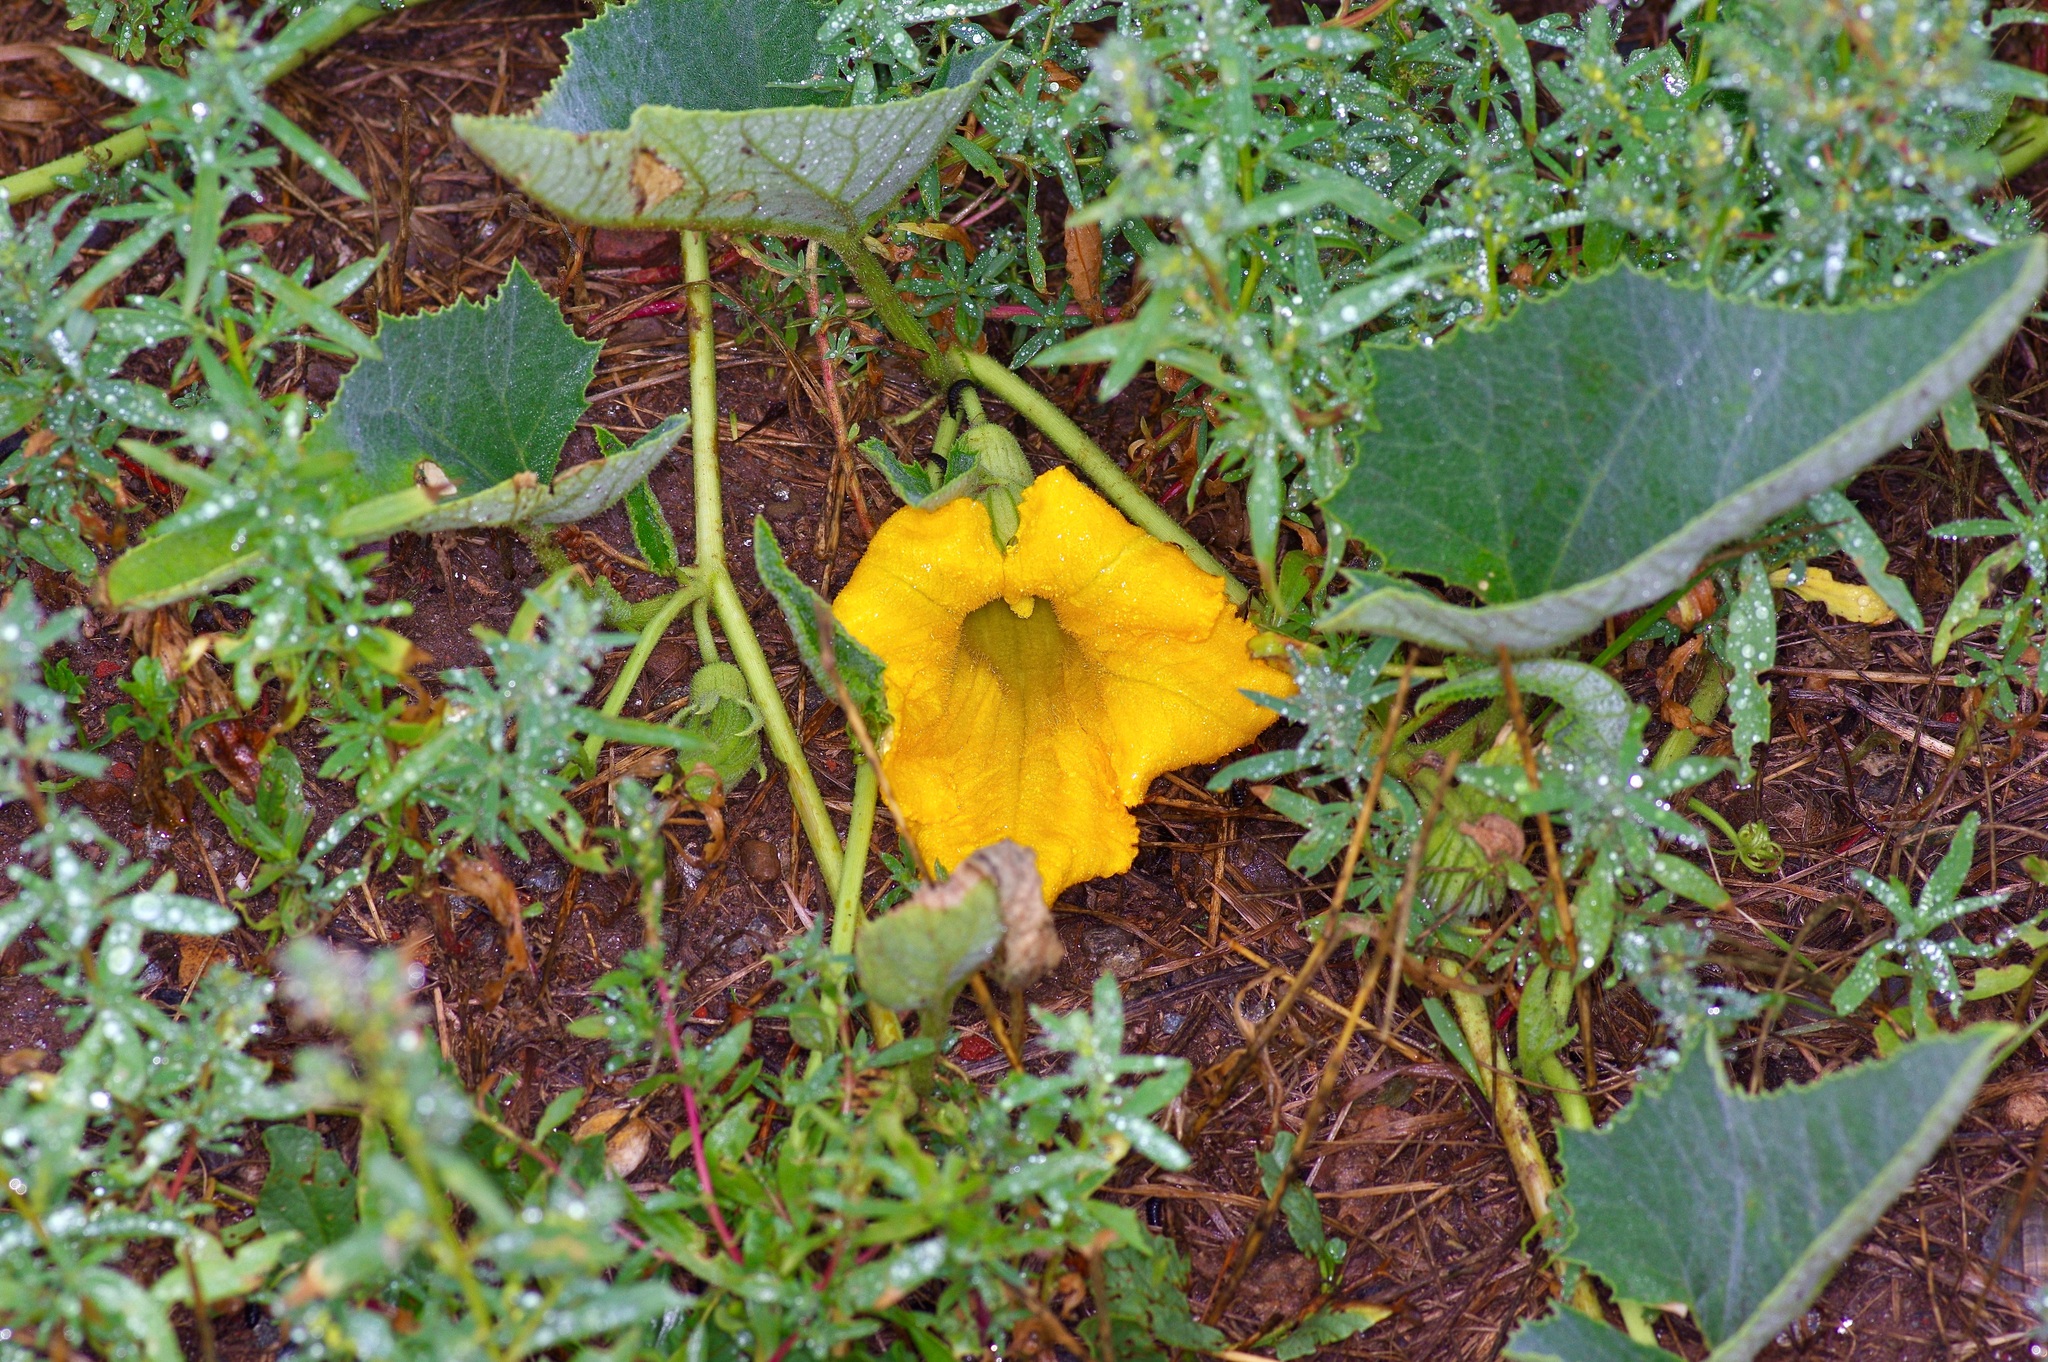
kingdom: Plantae
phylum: Tracheophyta
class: Magnoliopsida
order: Cucurbitales
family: Cucurbitaceae
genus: Cucurbita
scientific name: Cucurbita foetidissima
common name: Buffalo gourd
